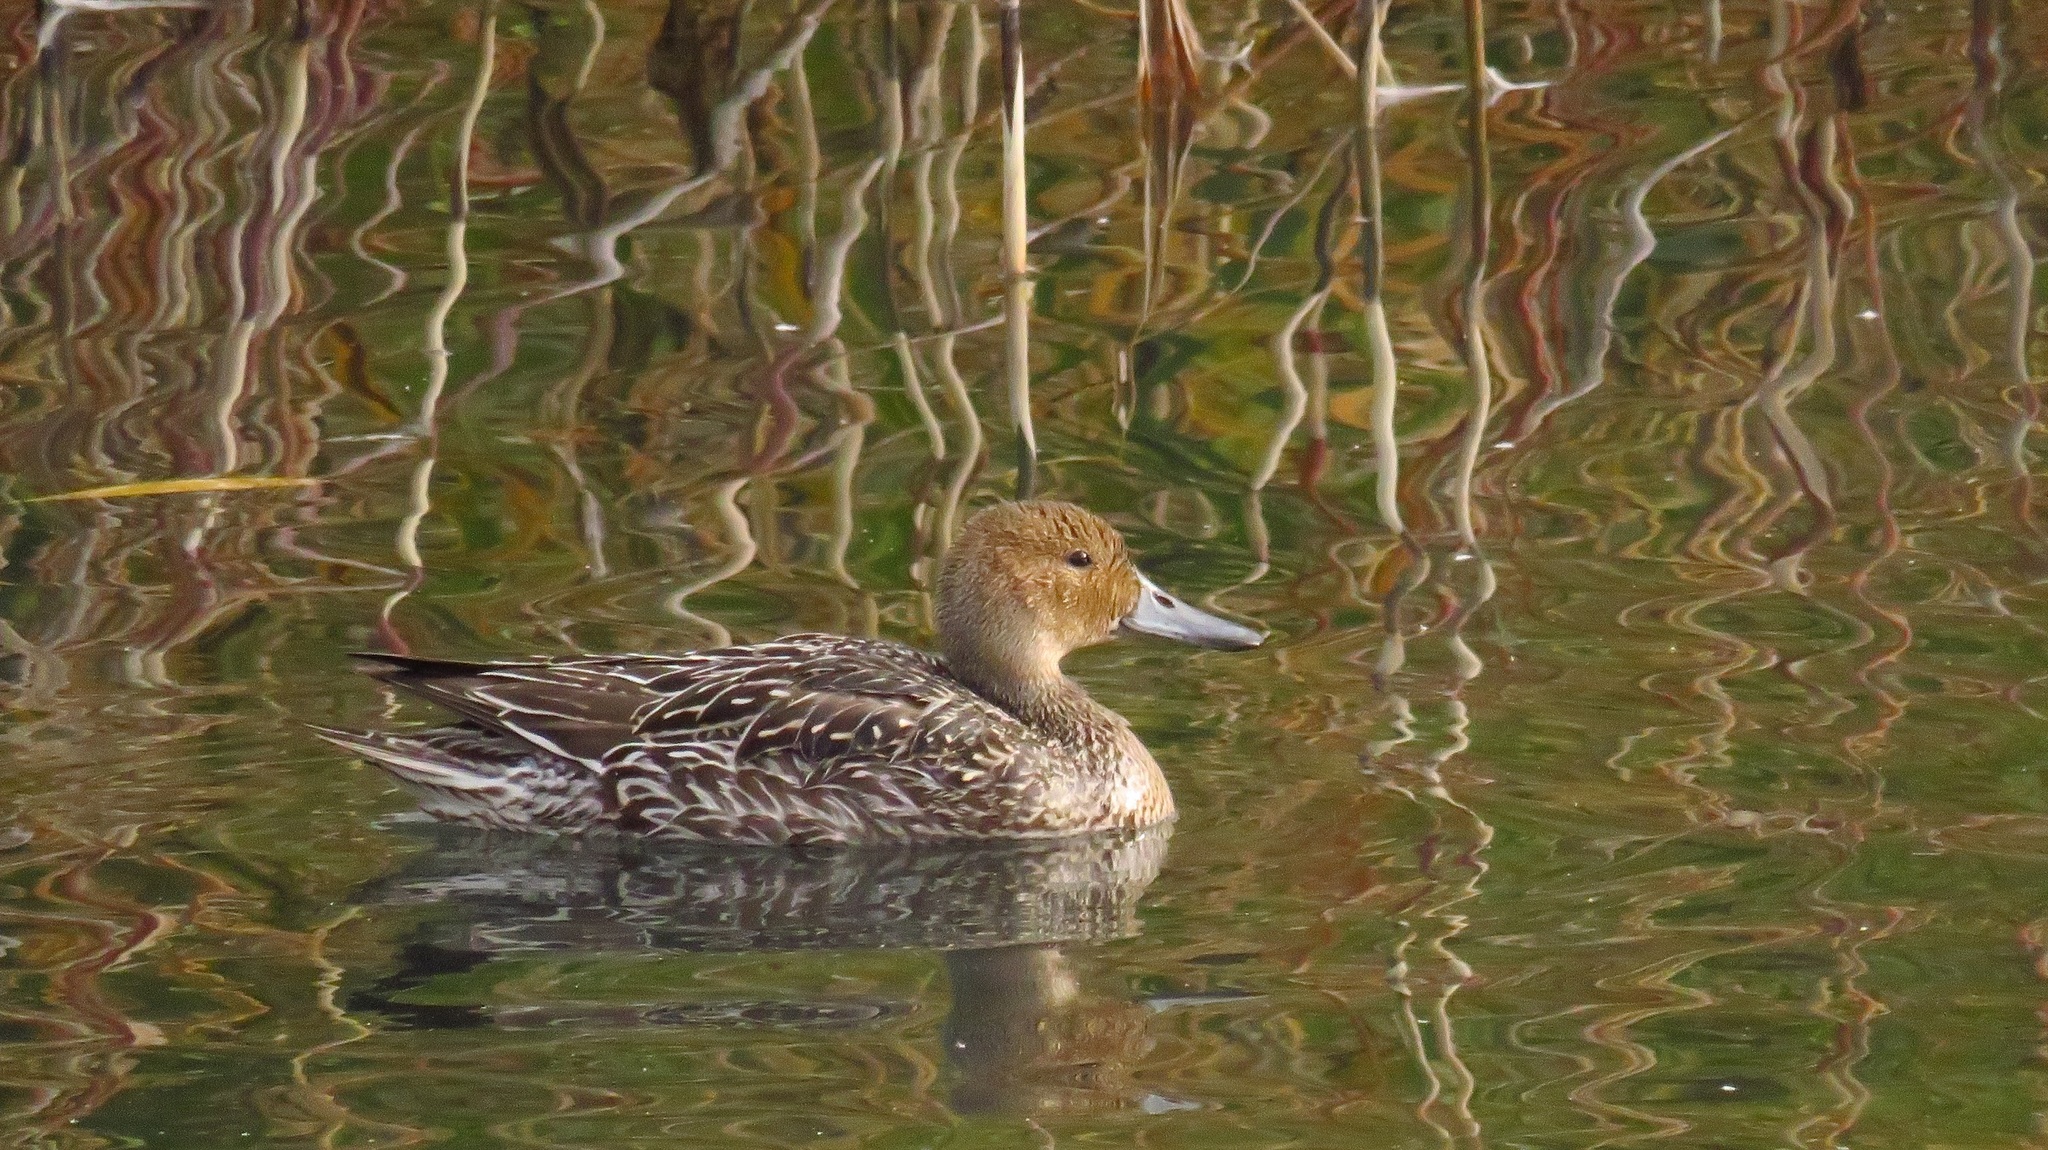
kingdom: Animalia
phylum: Chordata
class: Aves
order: Anseriformes
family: Anatidae
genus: Anas
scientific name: Anas acuta
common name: Northern pintail
